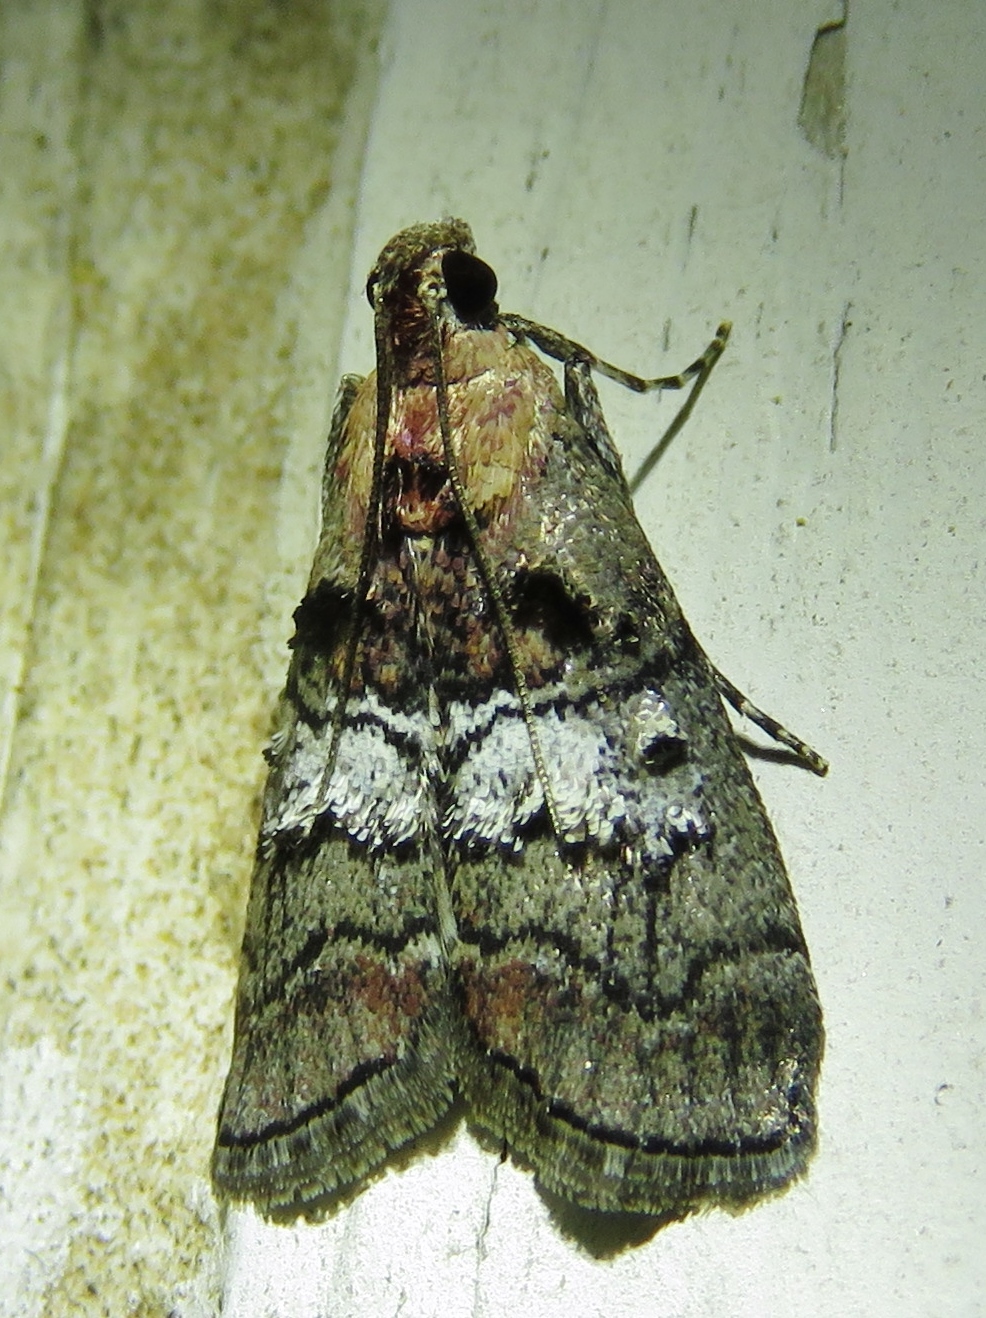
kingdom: Animalia
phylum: Arthropoda
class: Insecta
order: Lepidoptera
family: Pyralidae
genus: Pococera
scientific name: Pococera maritimalis
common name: Gray-banded pococera moth
